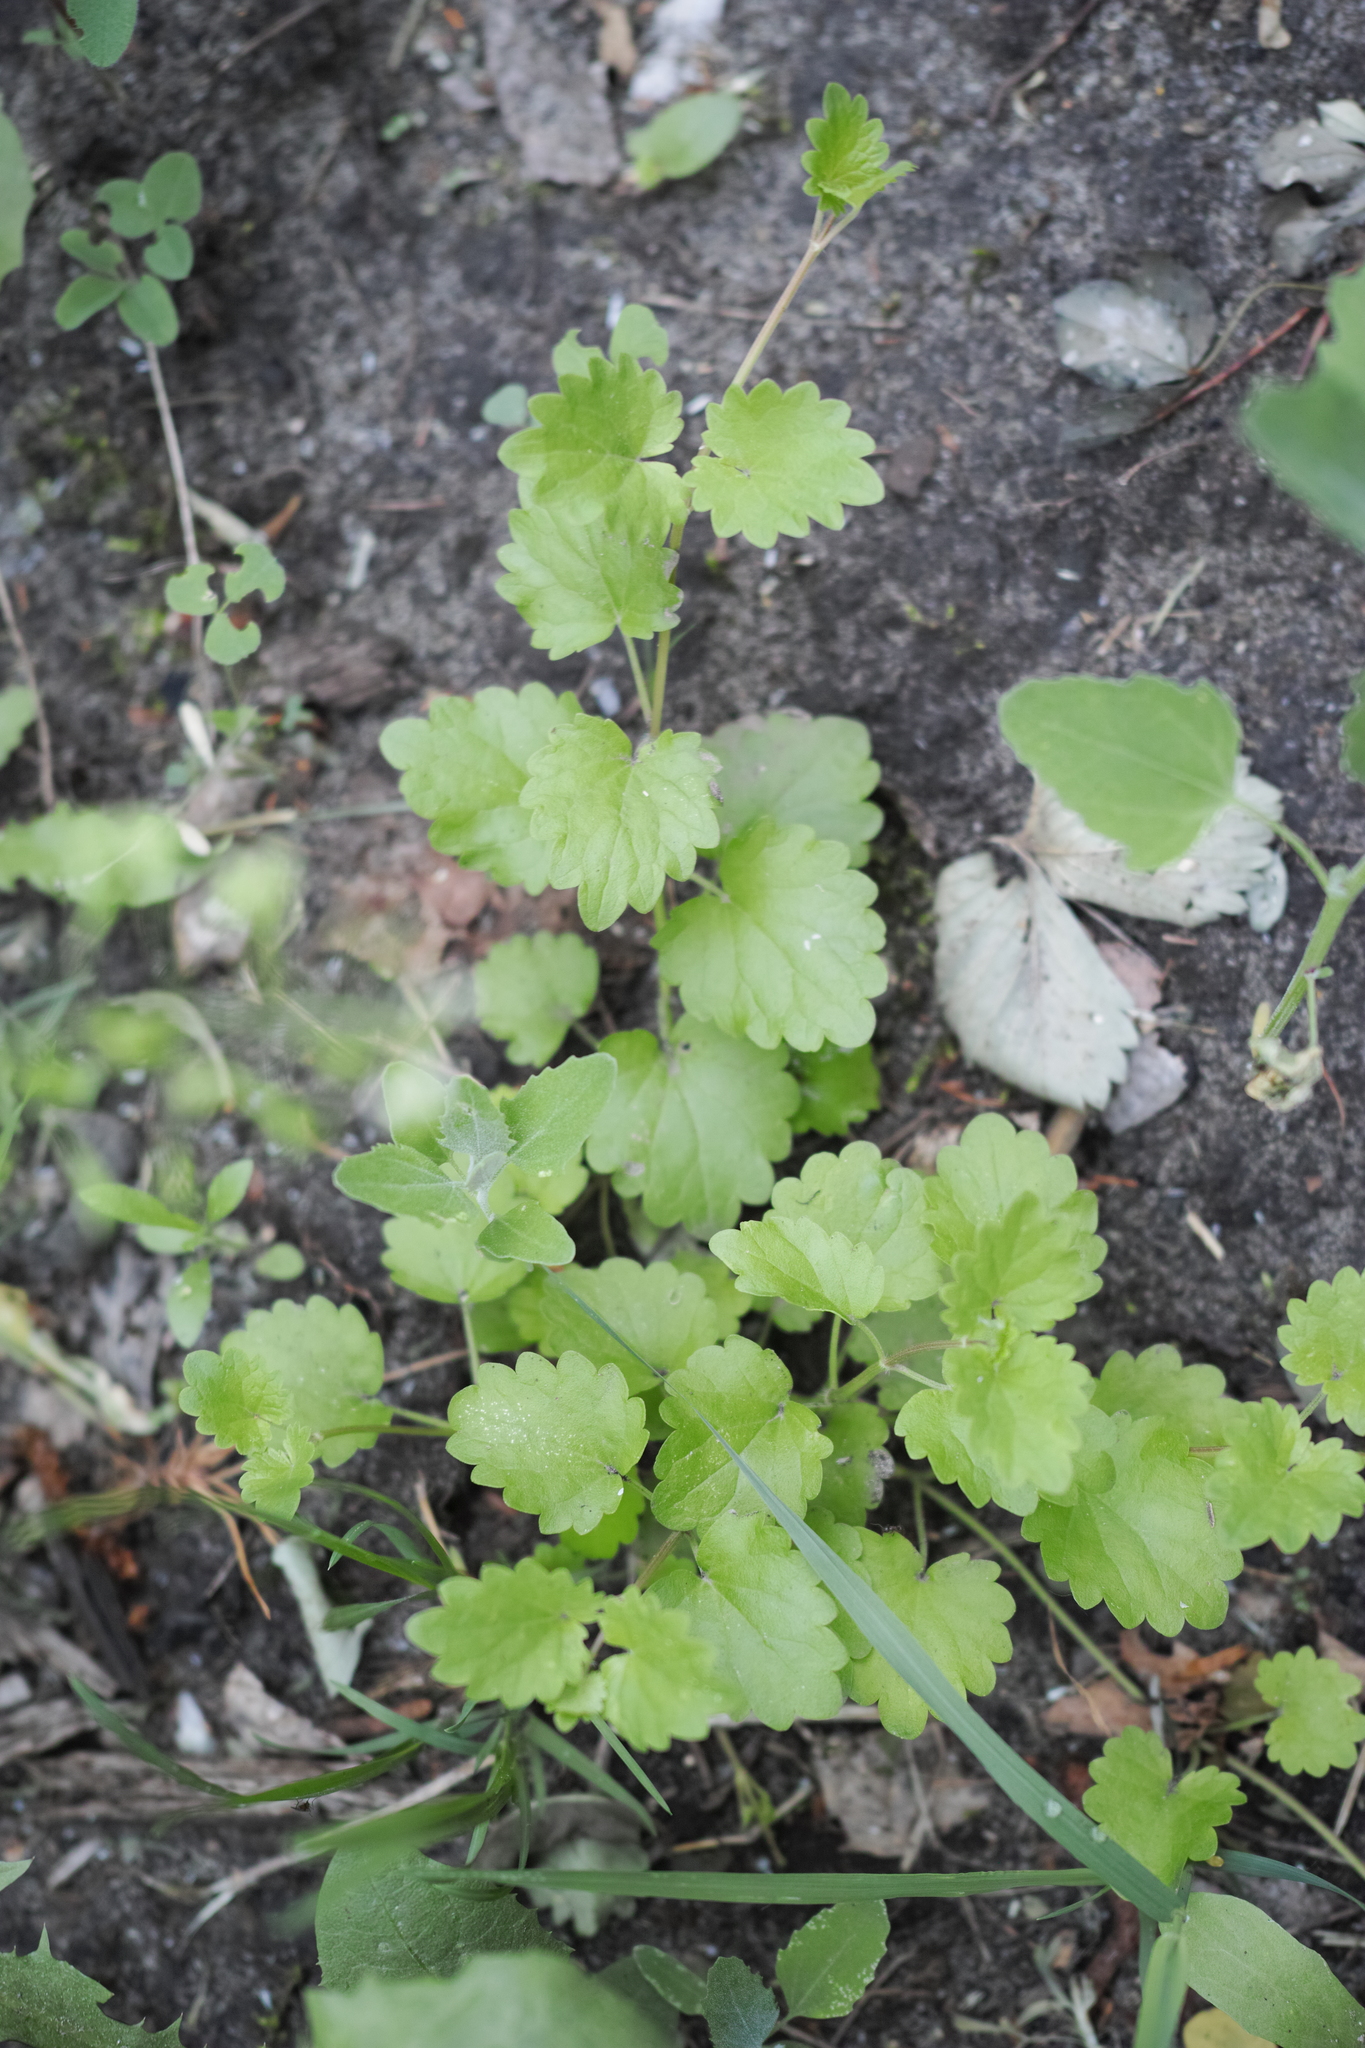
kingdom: Plantae
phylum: Tracheophyta
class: Magnoliopsida
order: Lamiales
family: Lamiaceae
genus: Glechoma
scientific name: Glechoma hederacea
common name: Ground ivy
